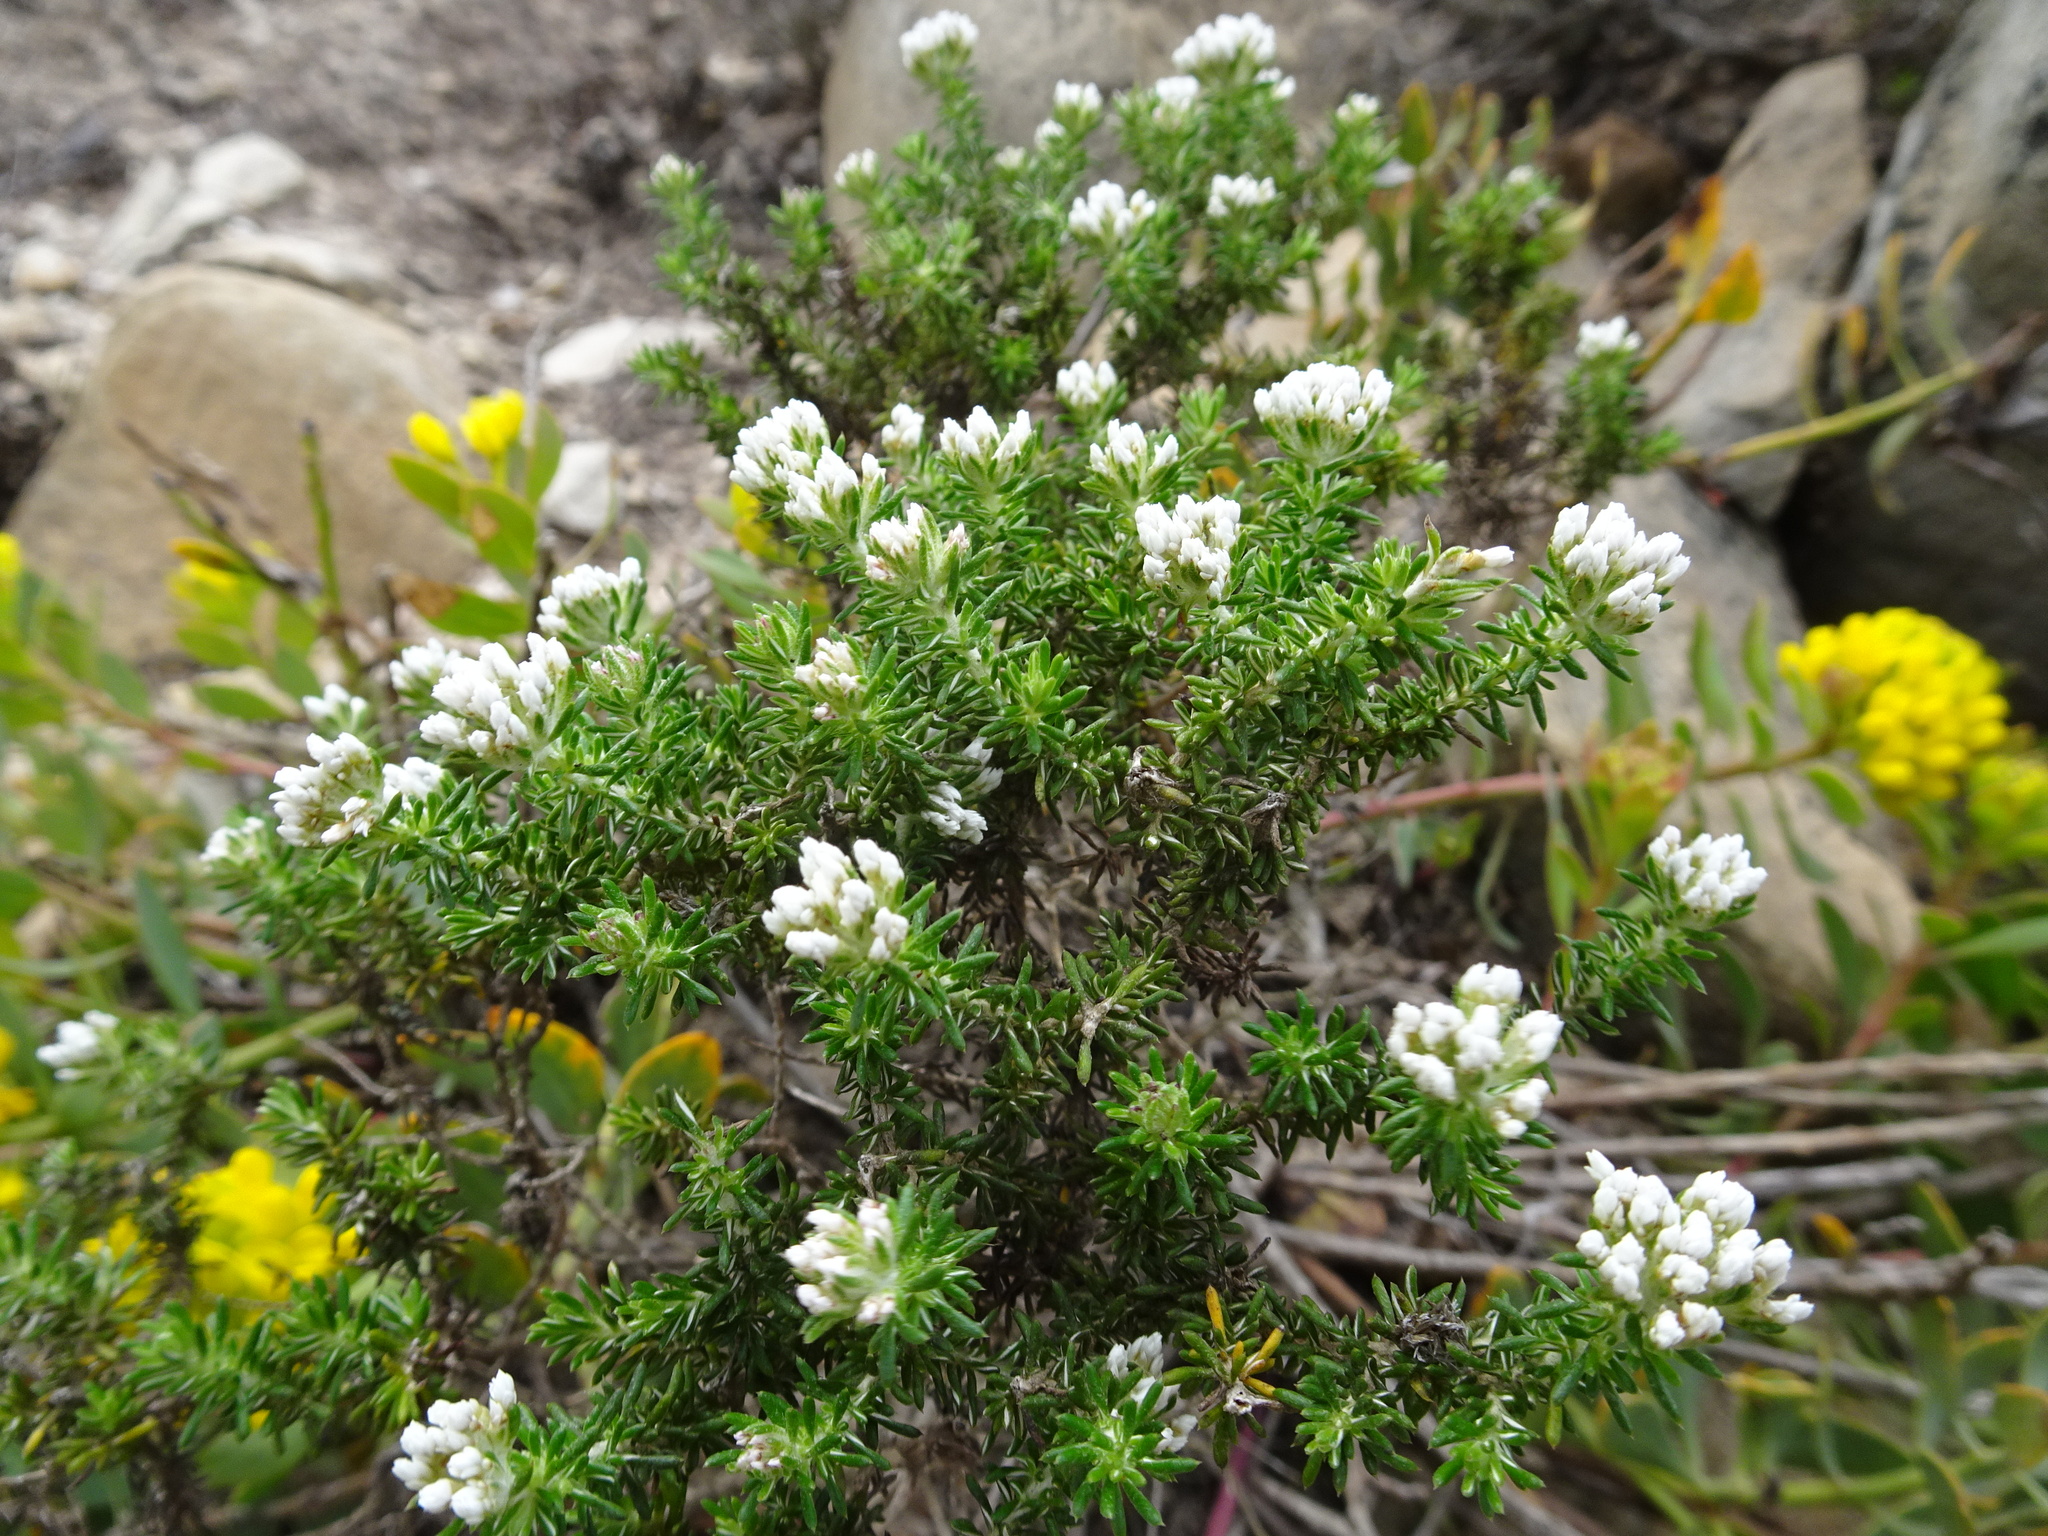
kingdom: Plantae
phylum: Tracheophyta
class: Magnoliopsida
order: Asterales
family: Asteraceae
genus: Metalasia
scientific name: Metalasia brevifolia
